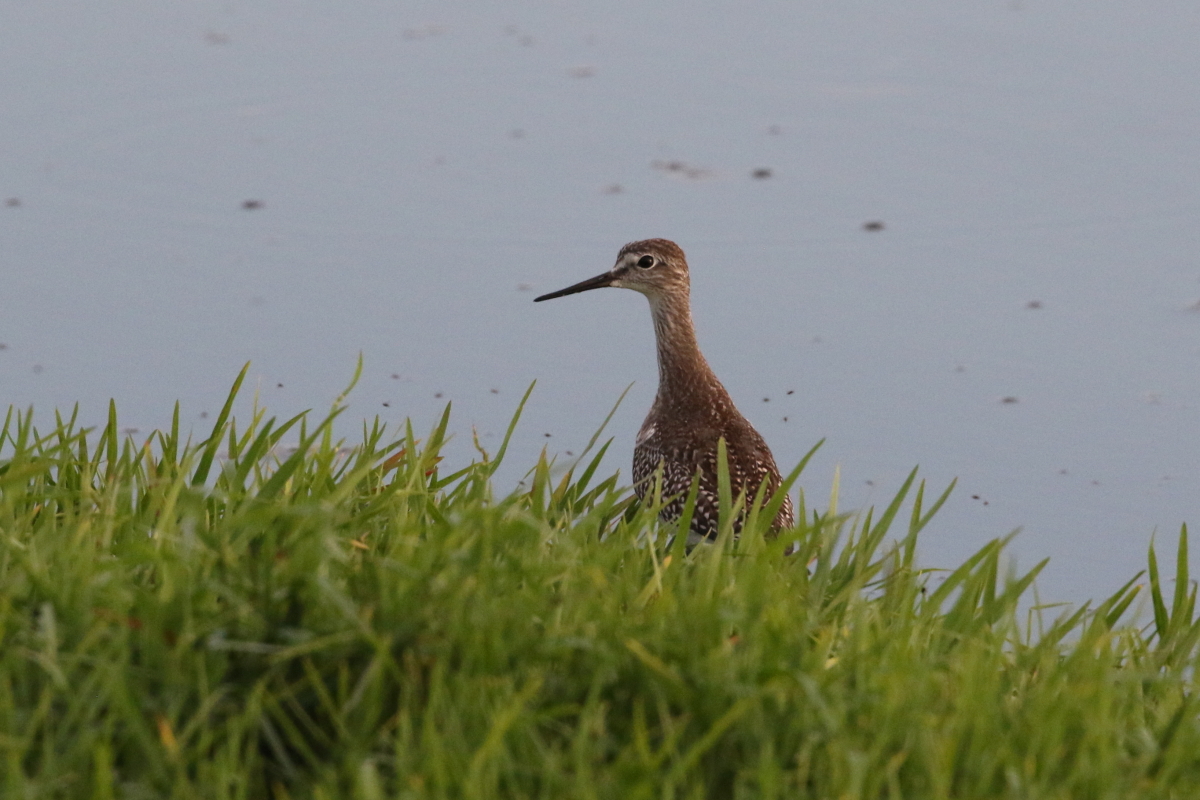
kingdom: Animalia
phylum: Chordata
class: Aves
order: Charadriiformes
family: Scolopacidae
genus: Tringa
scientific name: Tringa flavipes
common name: Lesser yellowlegs
